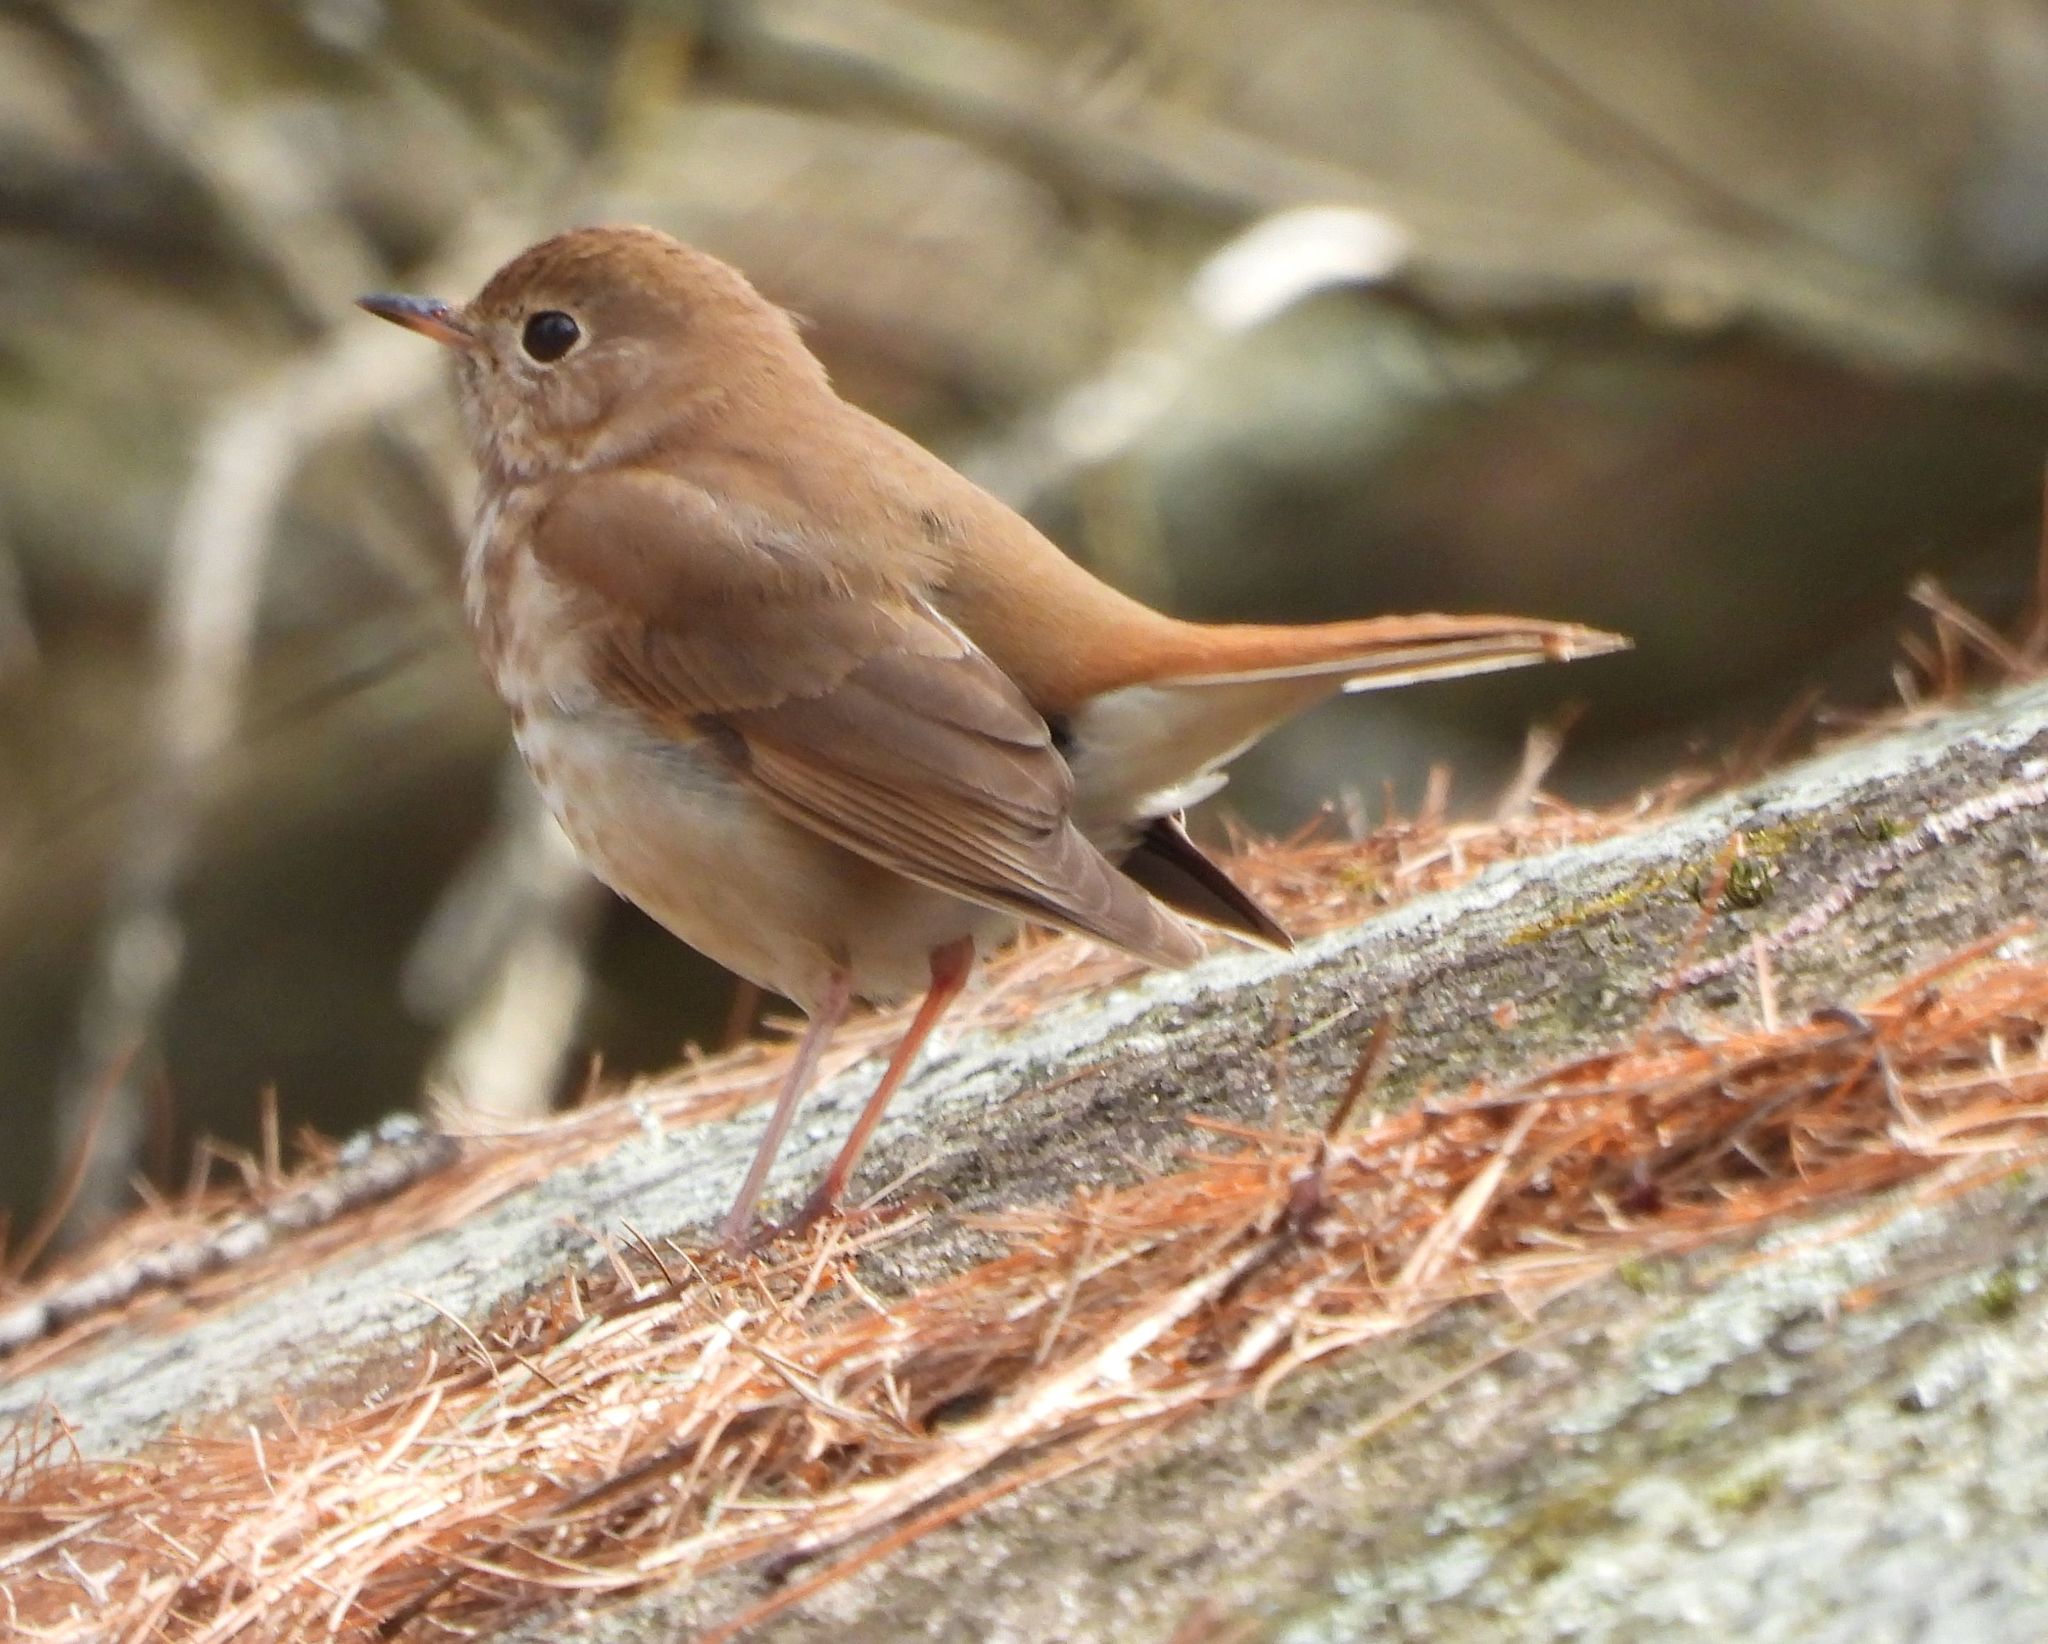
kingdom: Animalia
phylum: Chordata
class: Aves
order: Passeriformes
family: Turdidae
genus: Catharus
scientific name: Catharus guttatus
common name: Hermit thrush
